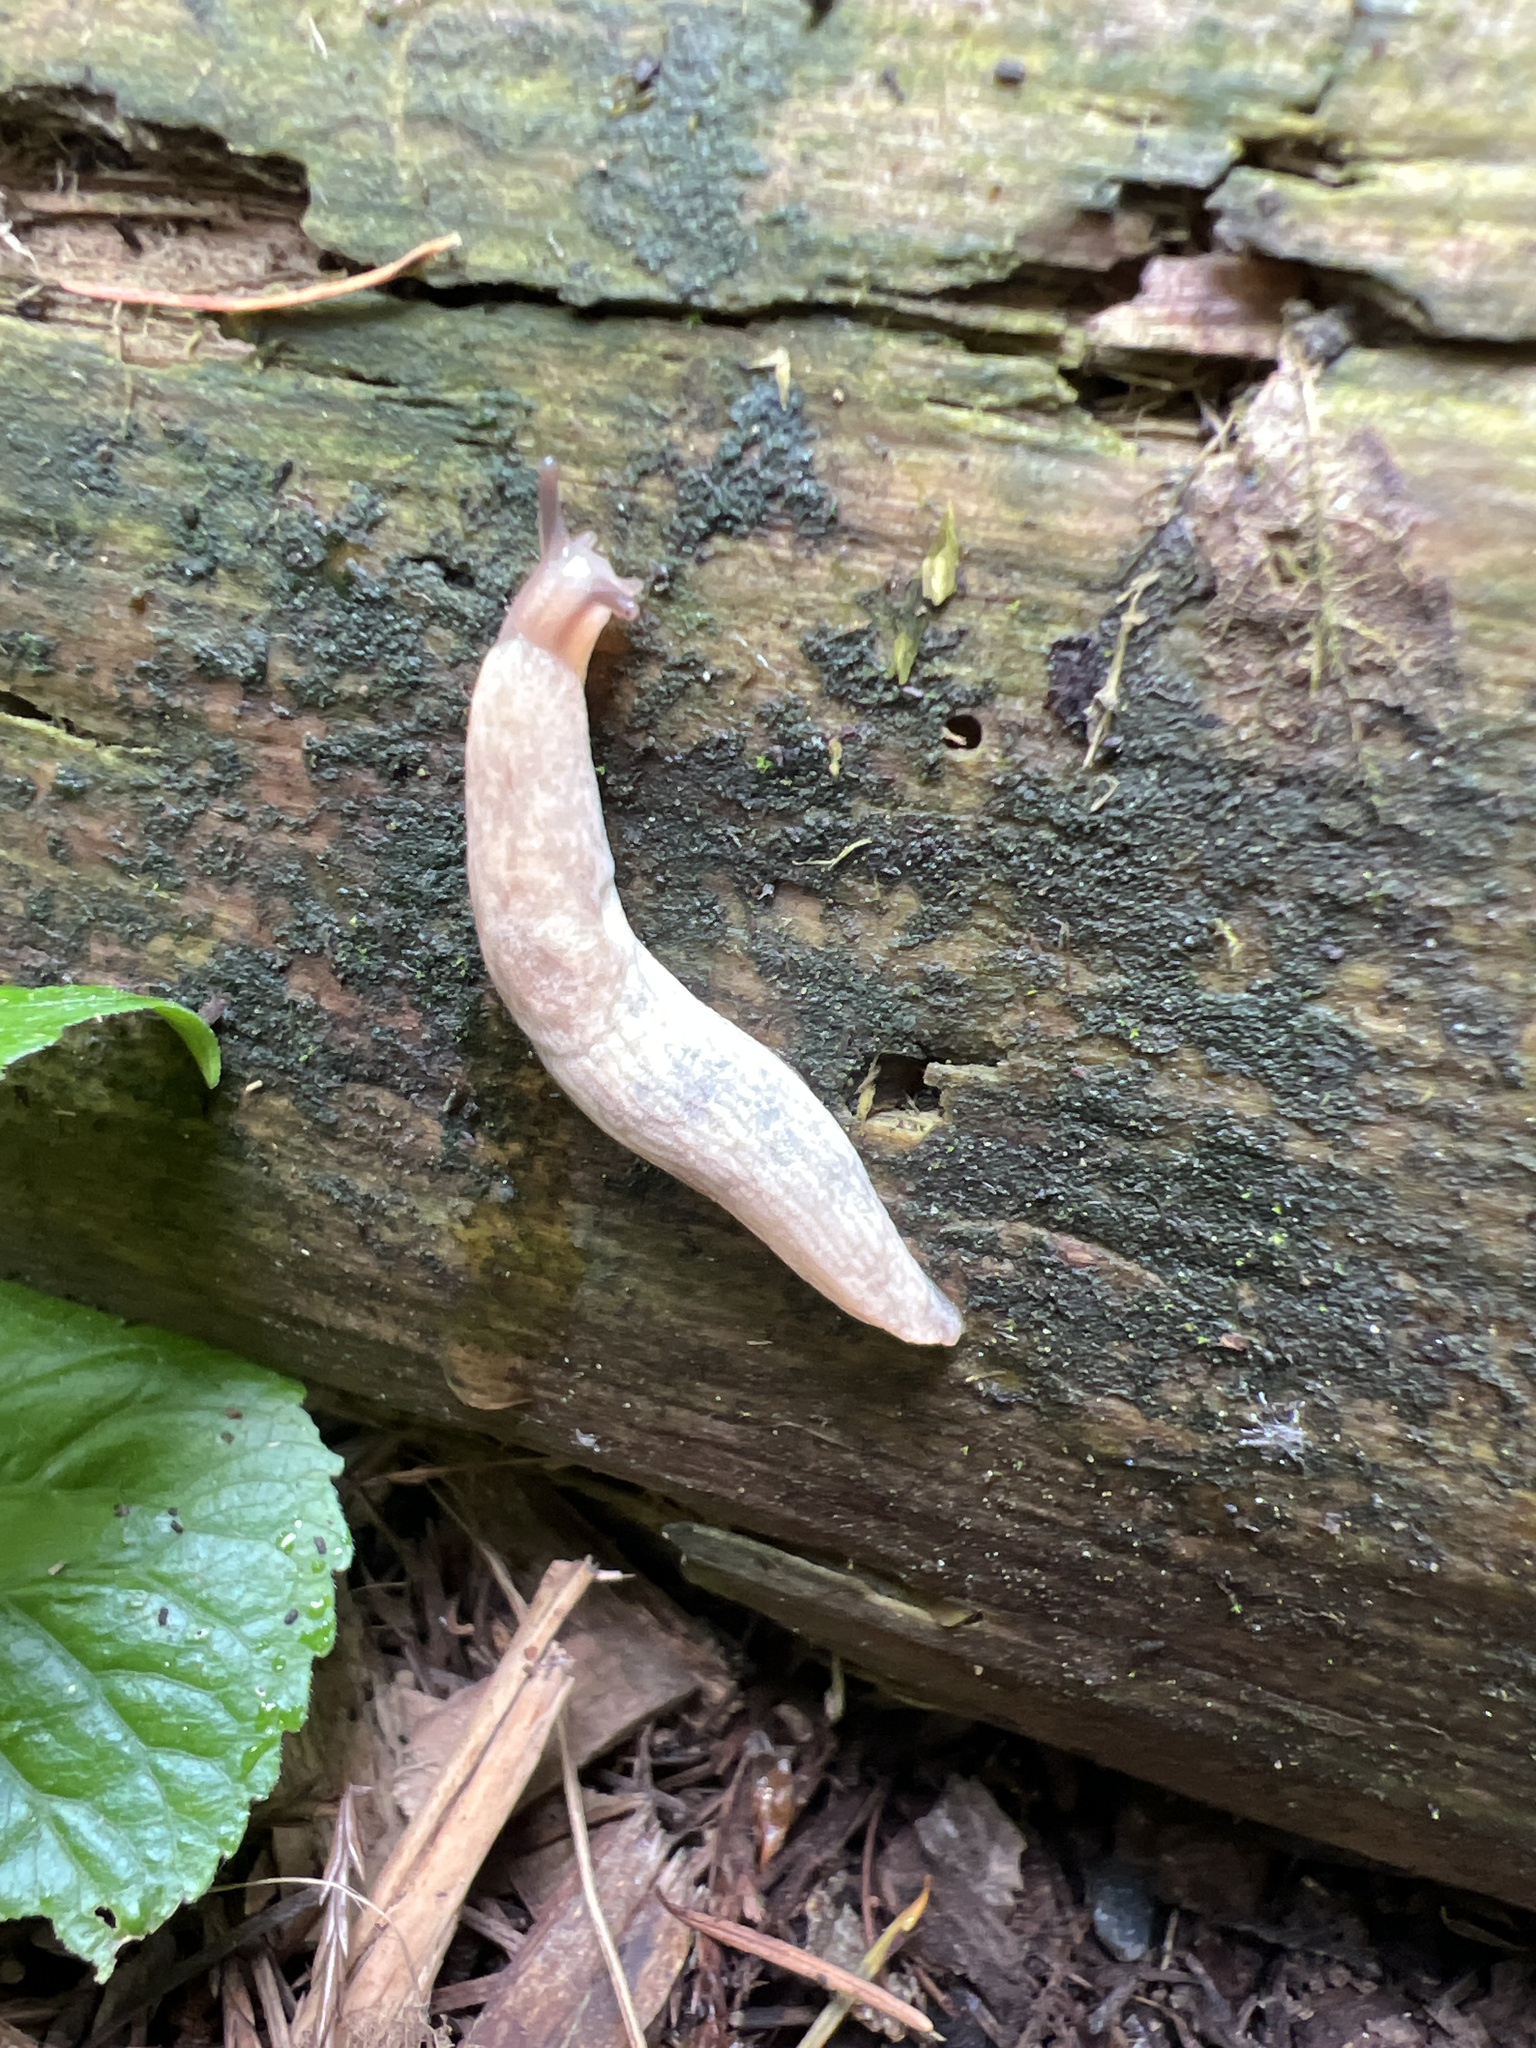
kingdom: Animalia
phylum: Mollusca
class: Gastropoda
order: Stylommatophora
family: Agriolimacidae
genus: Deroceras
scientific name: Deroceras reticulatum
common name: Gray field slug
